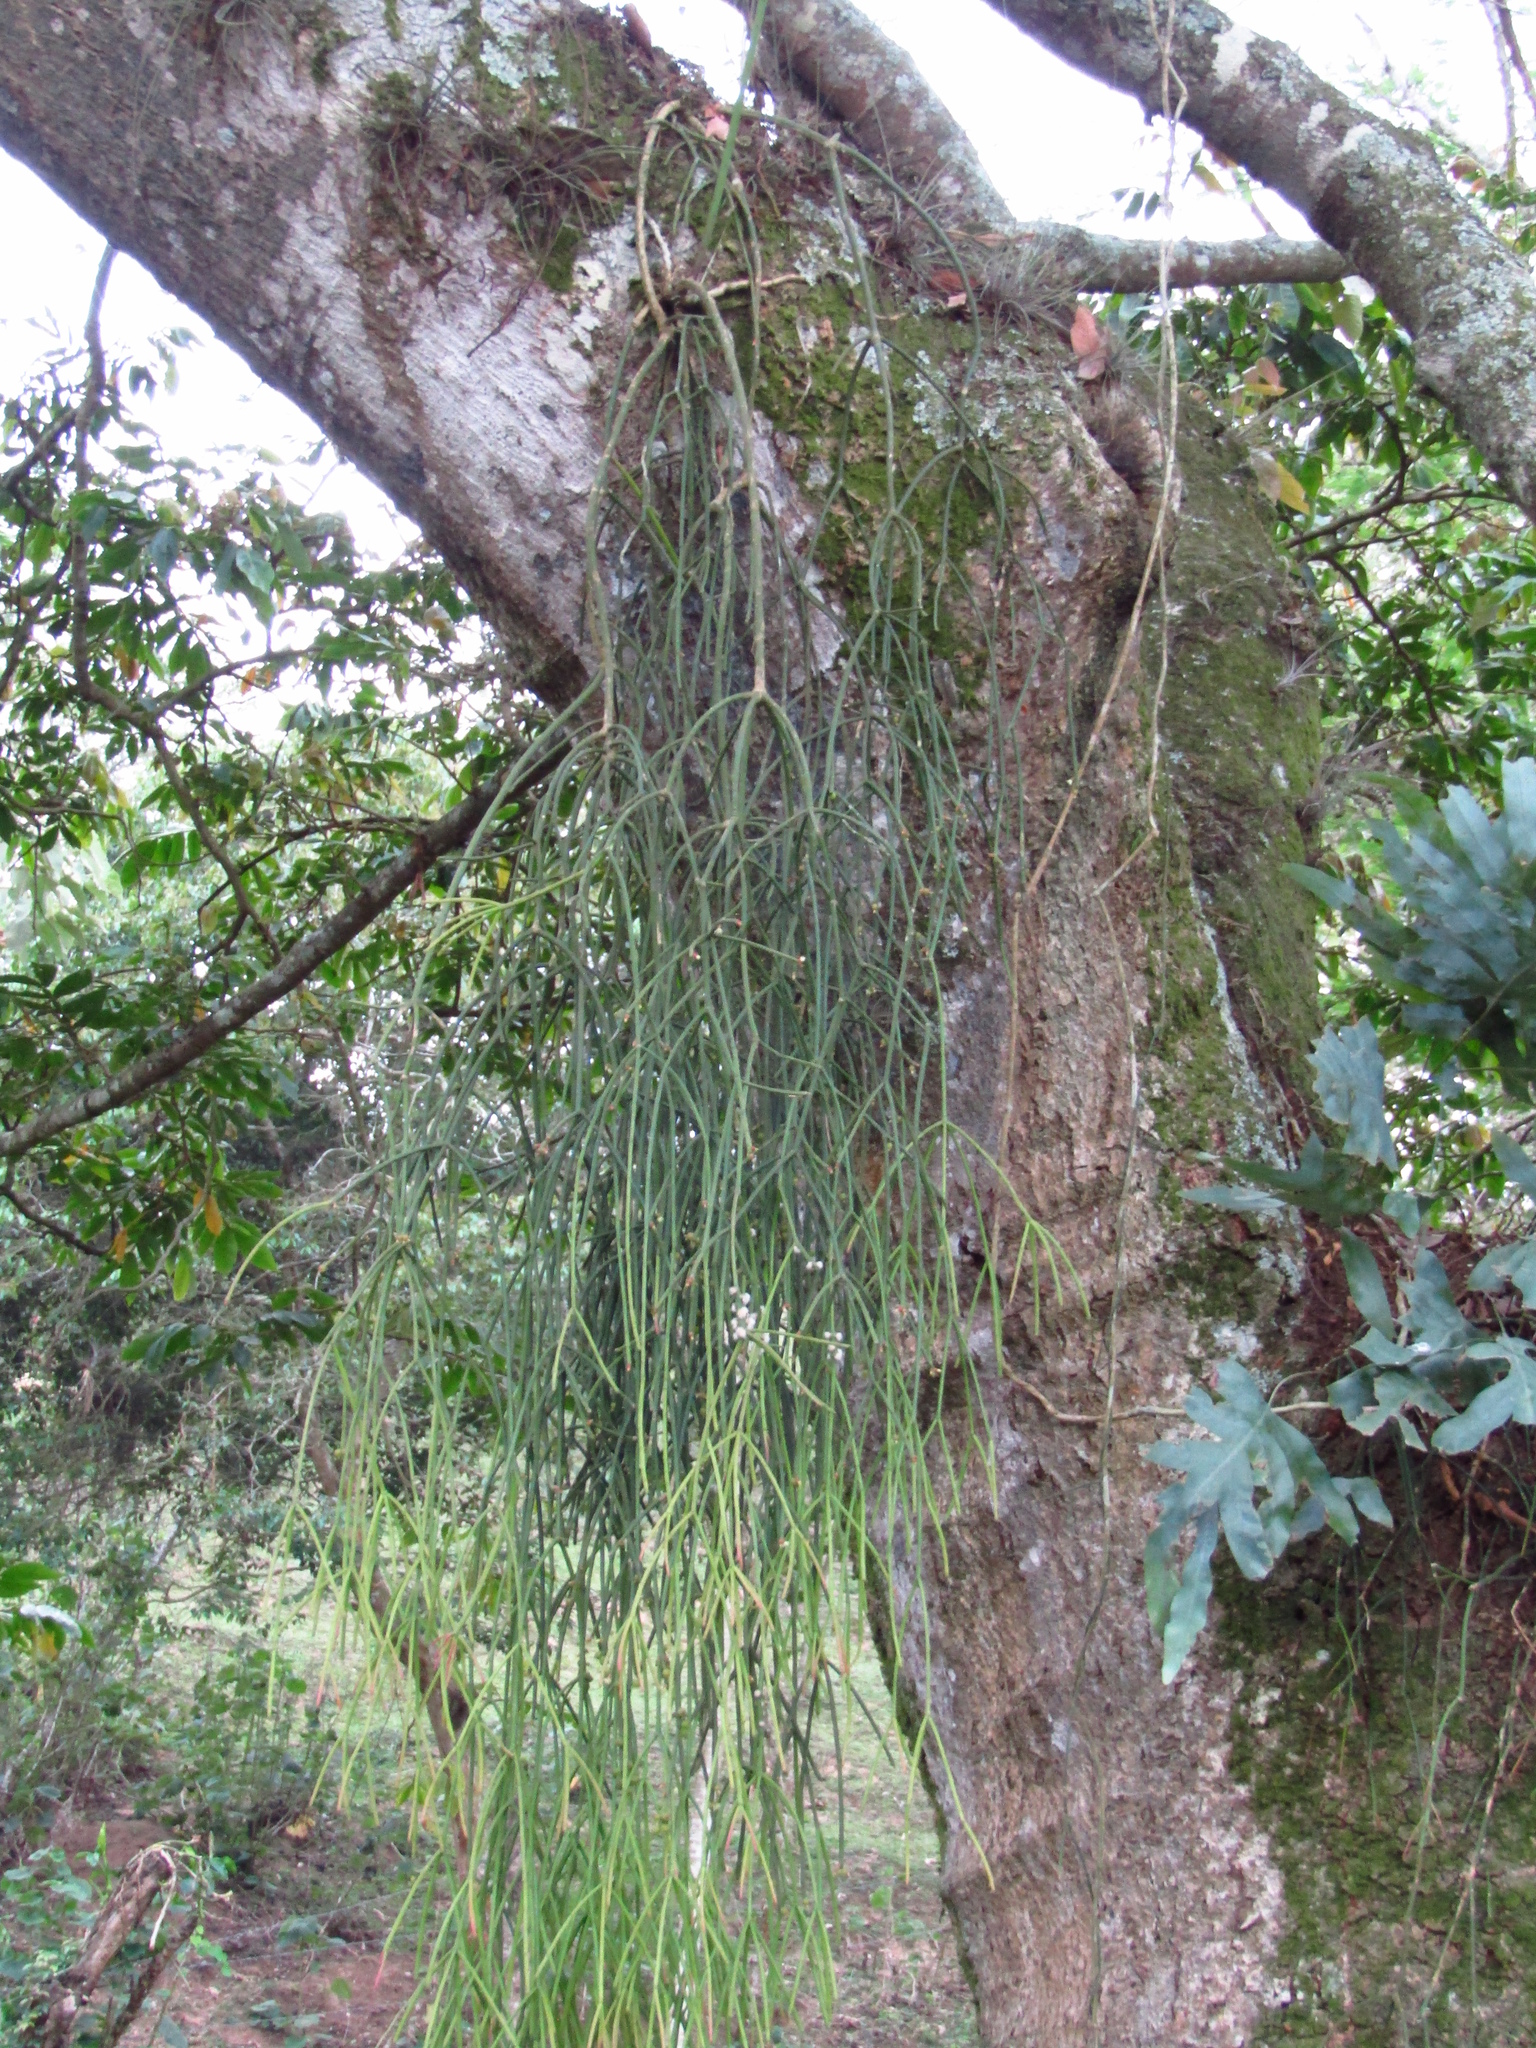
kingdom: Plantae
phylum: Tracheophyta
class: Magnoliopsida
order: Caryophyllales
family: Cactaceae
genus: Rhipsalis
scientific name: Rhipsalis baccifera
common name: Mistletoe cactus
